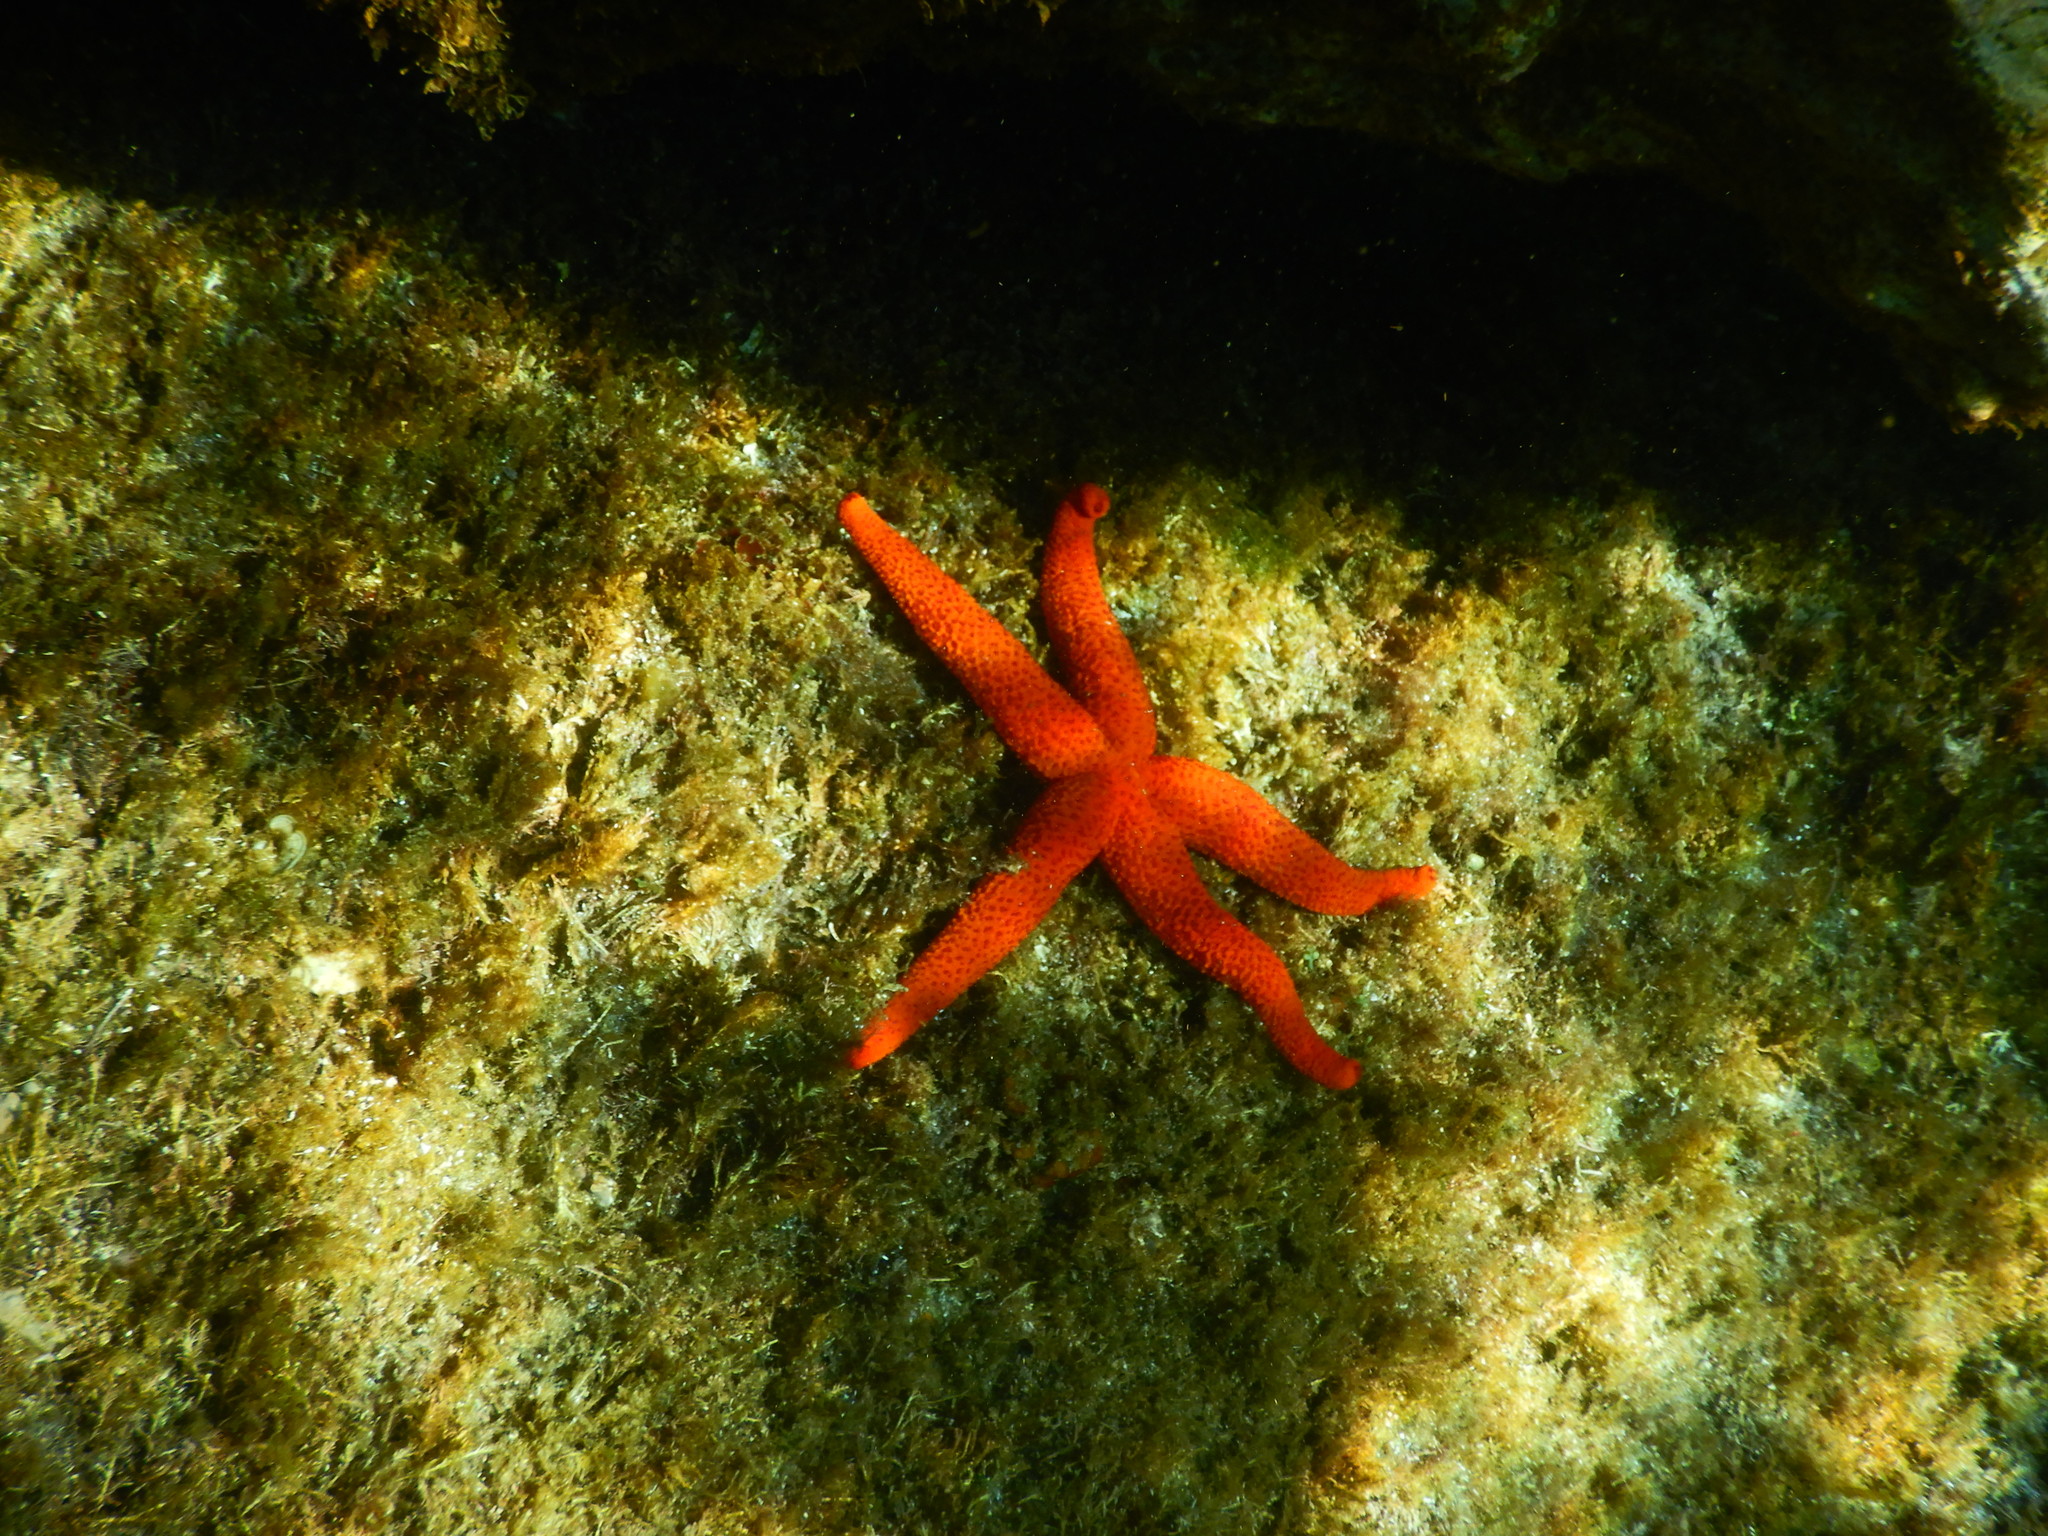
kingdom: Animalia
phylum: Echinodermata
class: Asteroidea
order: Spinulosida
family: Echinasteridae
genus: Echinaster
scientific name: Echinaster sepositus
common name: Red starfish
